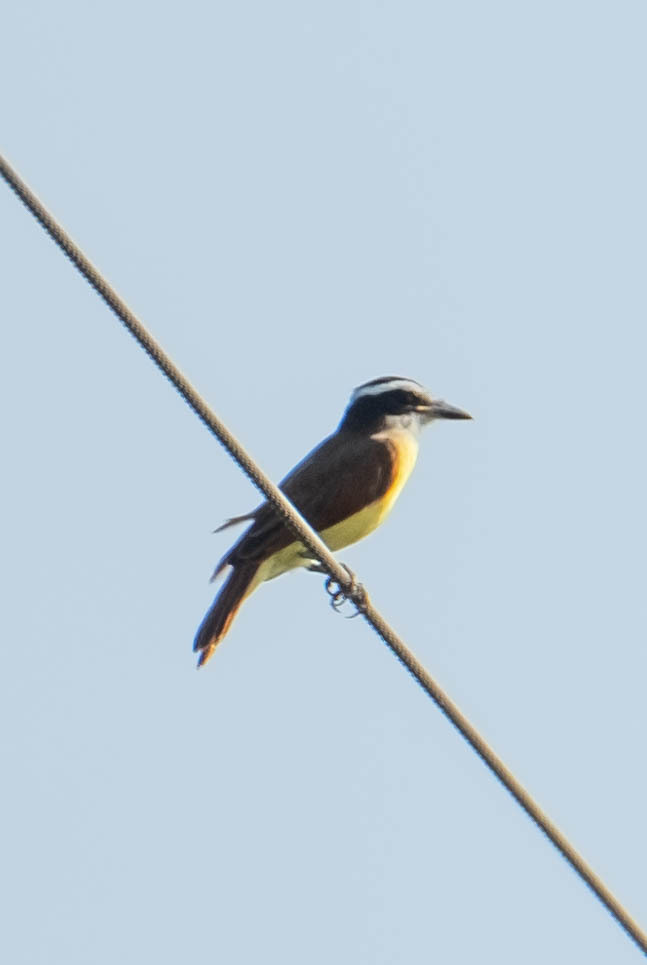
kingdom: Animalia
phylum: Chordata
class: Aves
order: Passeriformes
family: Tyrannidae
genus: Pitangus
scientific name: Pitangus sulphuratus
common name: Great kiskadee
